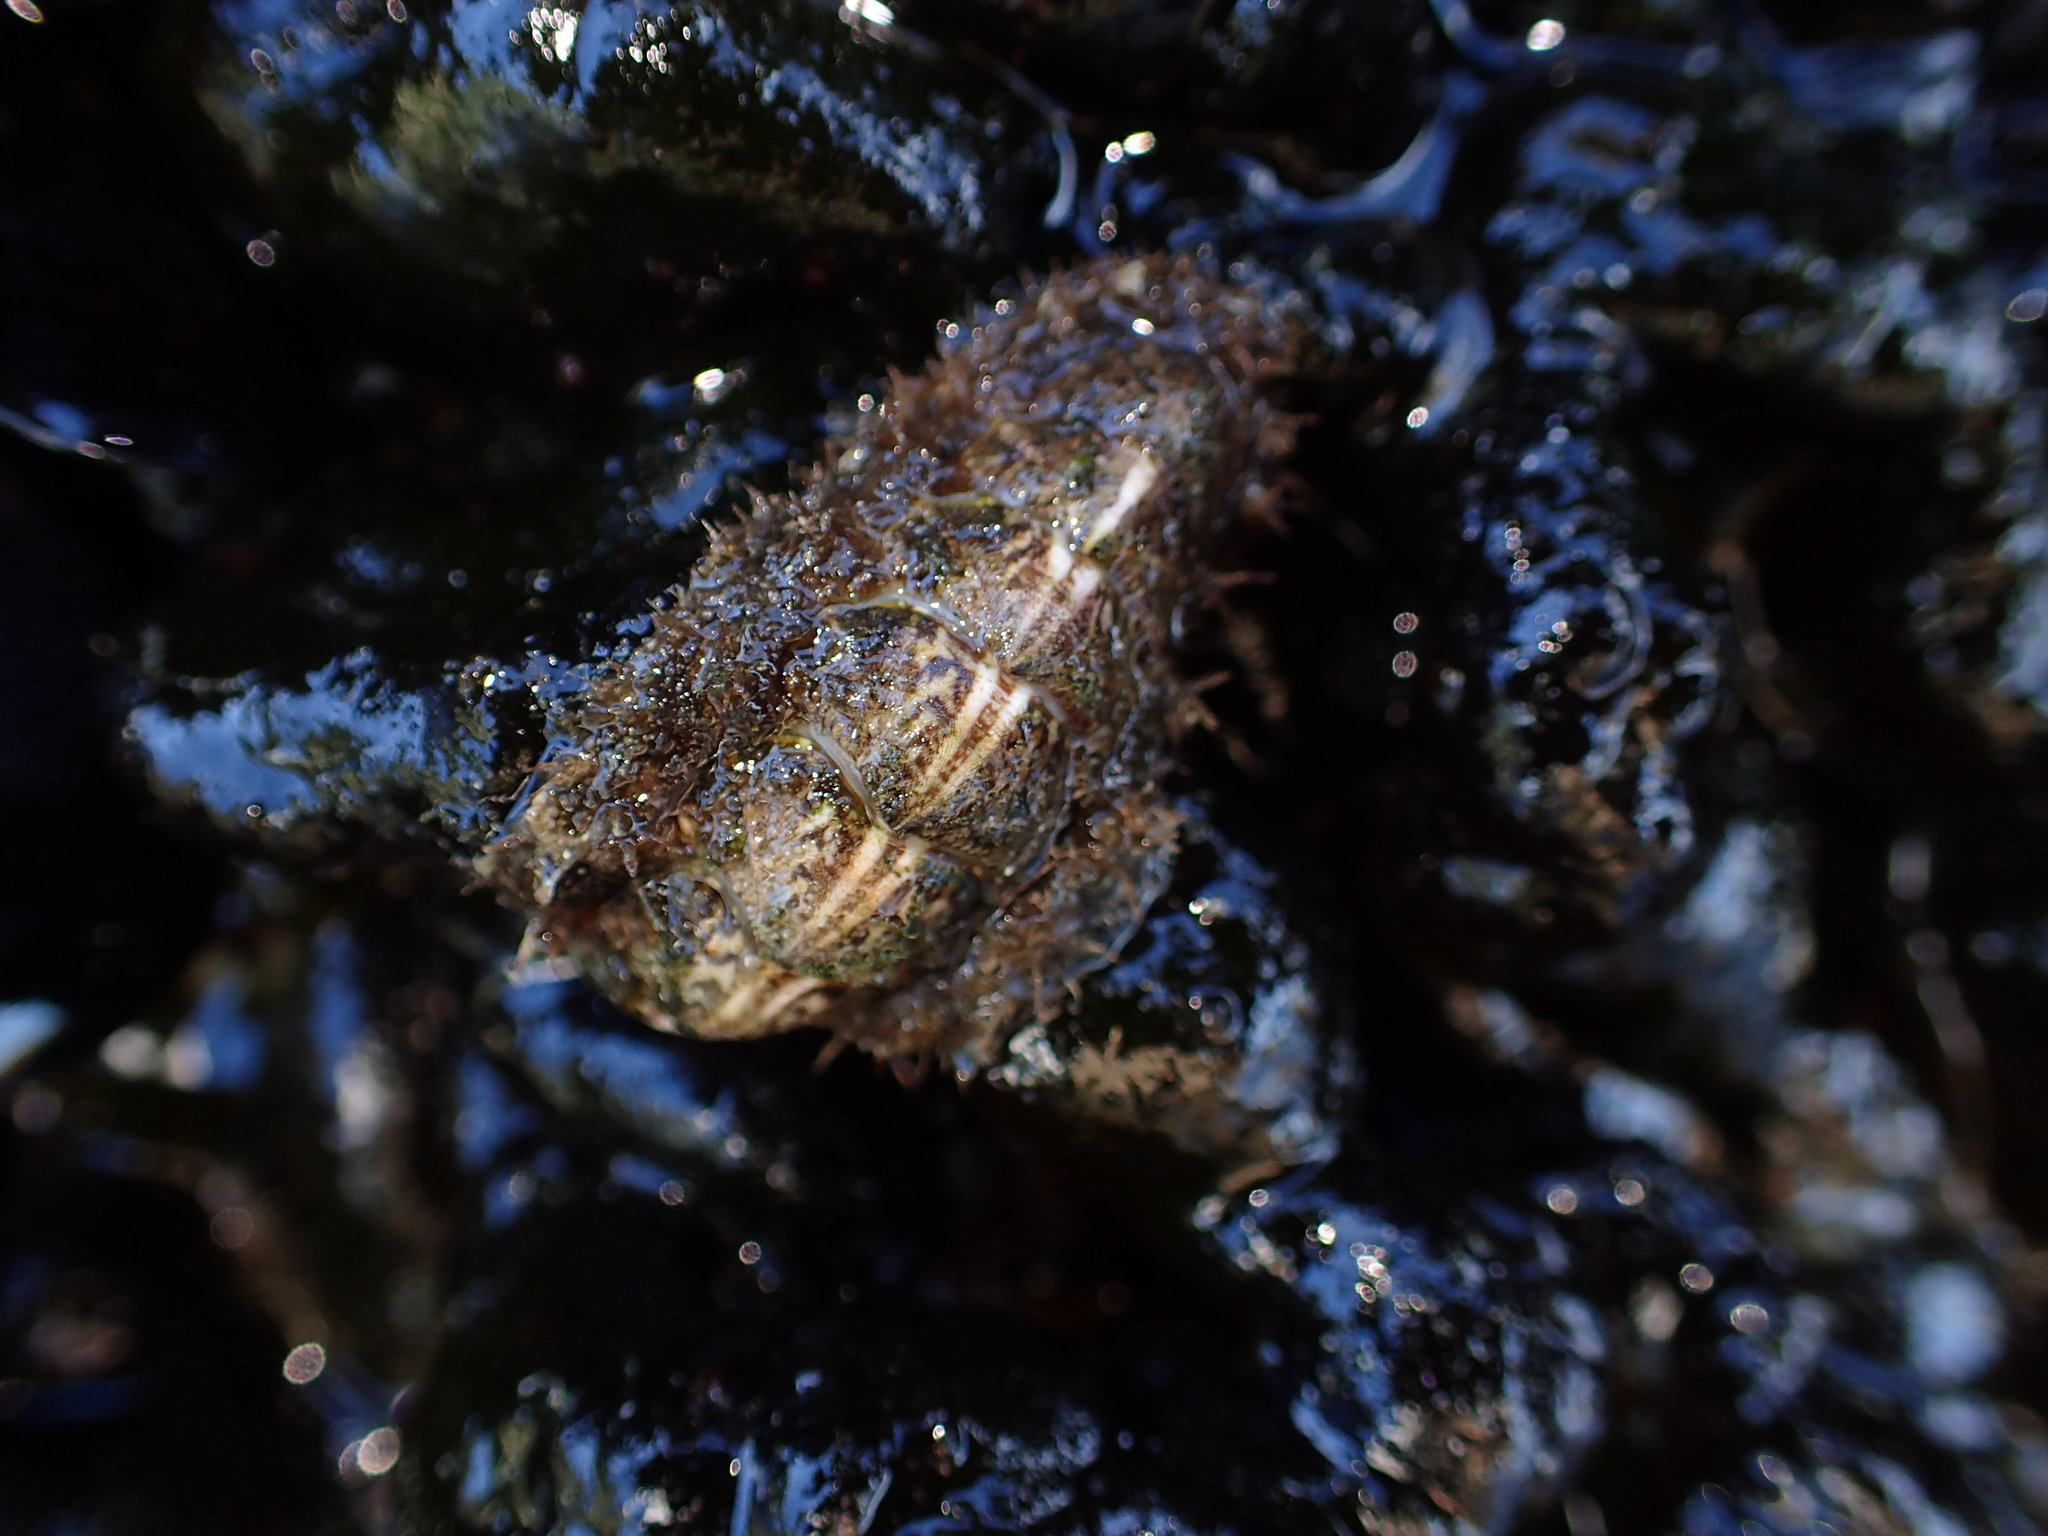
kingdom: Animalia
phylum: Mollusca
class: Polyplacophora
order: Chitonida
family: Mopaliidae
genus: Plaxiphora
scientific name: Plaxiphora caelata
